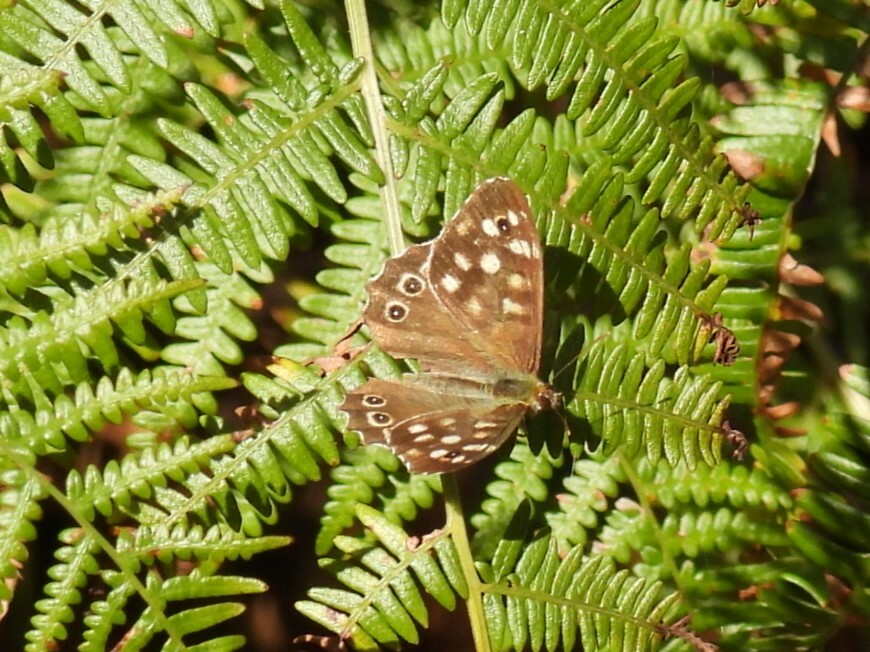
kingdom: Animalia
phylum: Arthropoda
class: Insecta
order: Lepidoptera
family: Nymphalidae
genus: Pararge
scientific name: Pararge aegeria
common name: Speckled wood
